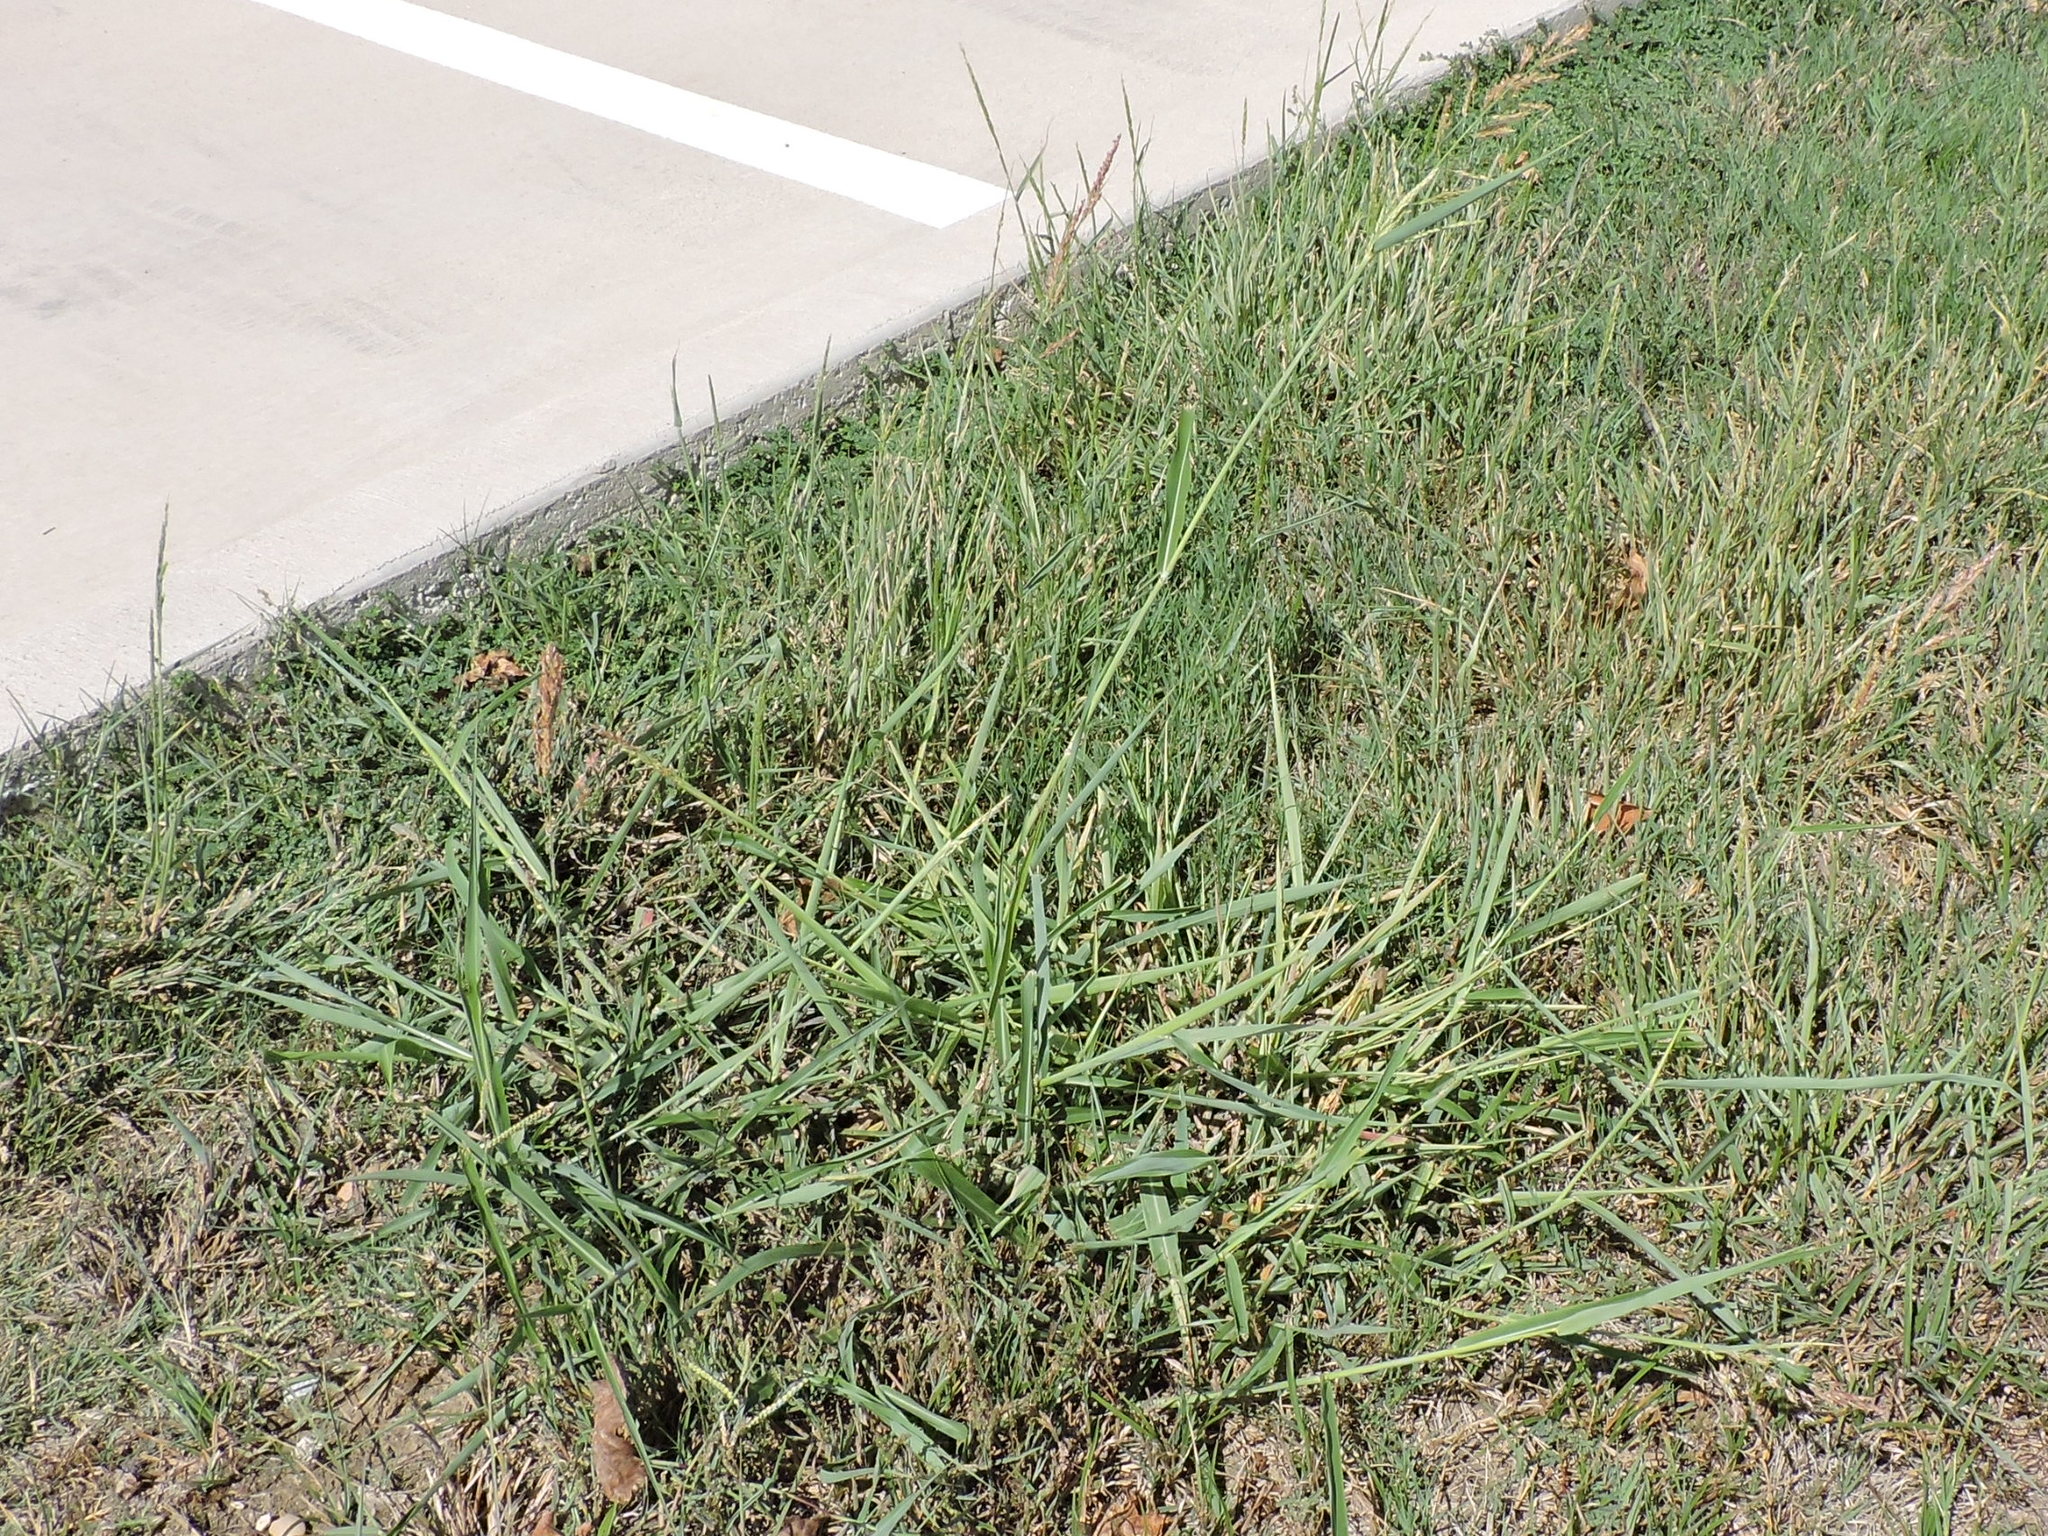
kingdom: Plantae
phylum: Tracheophyta
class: Liliopsida
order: Poales
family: Poaceae
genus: Sorghum
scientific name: Sorghum halepense
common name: Johnson-grass
